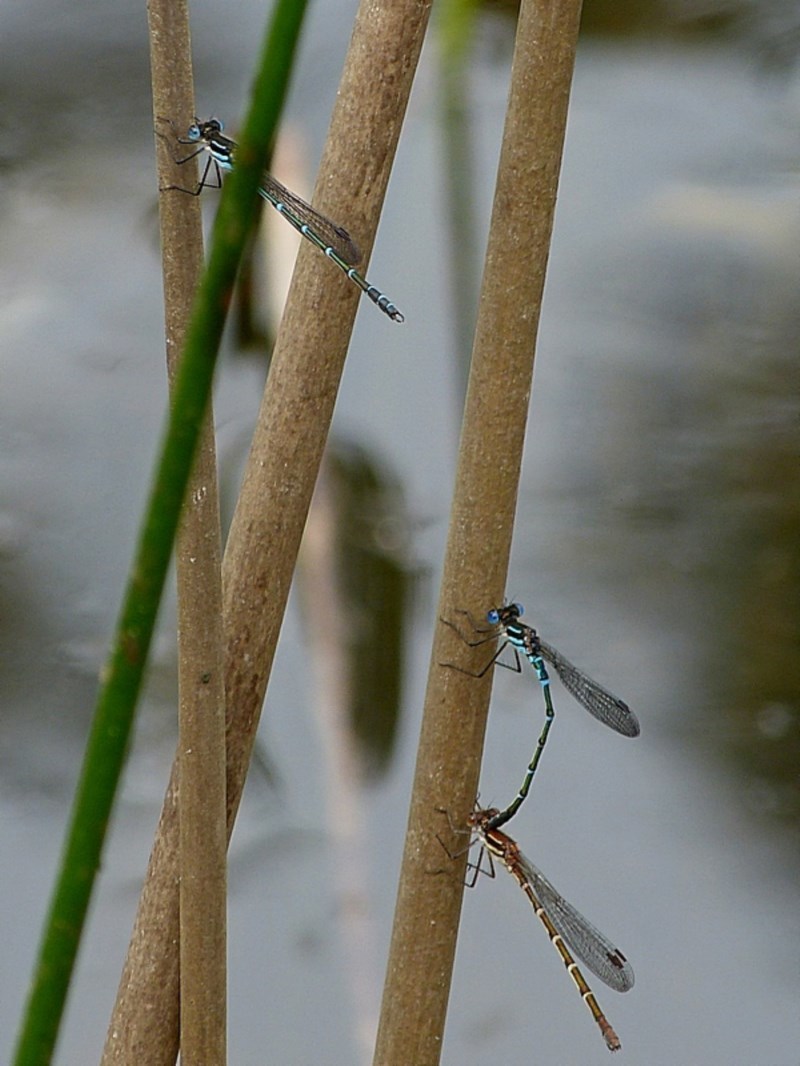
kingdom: Animalia
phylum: Arthropoda
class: Insecta
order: Odonata
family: Lestidae
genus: Austrolestes
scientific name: Austrolestes psyche
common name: Cup ringtail
